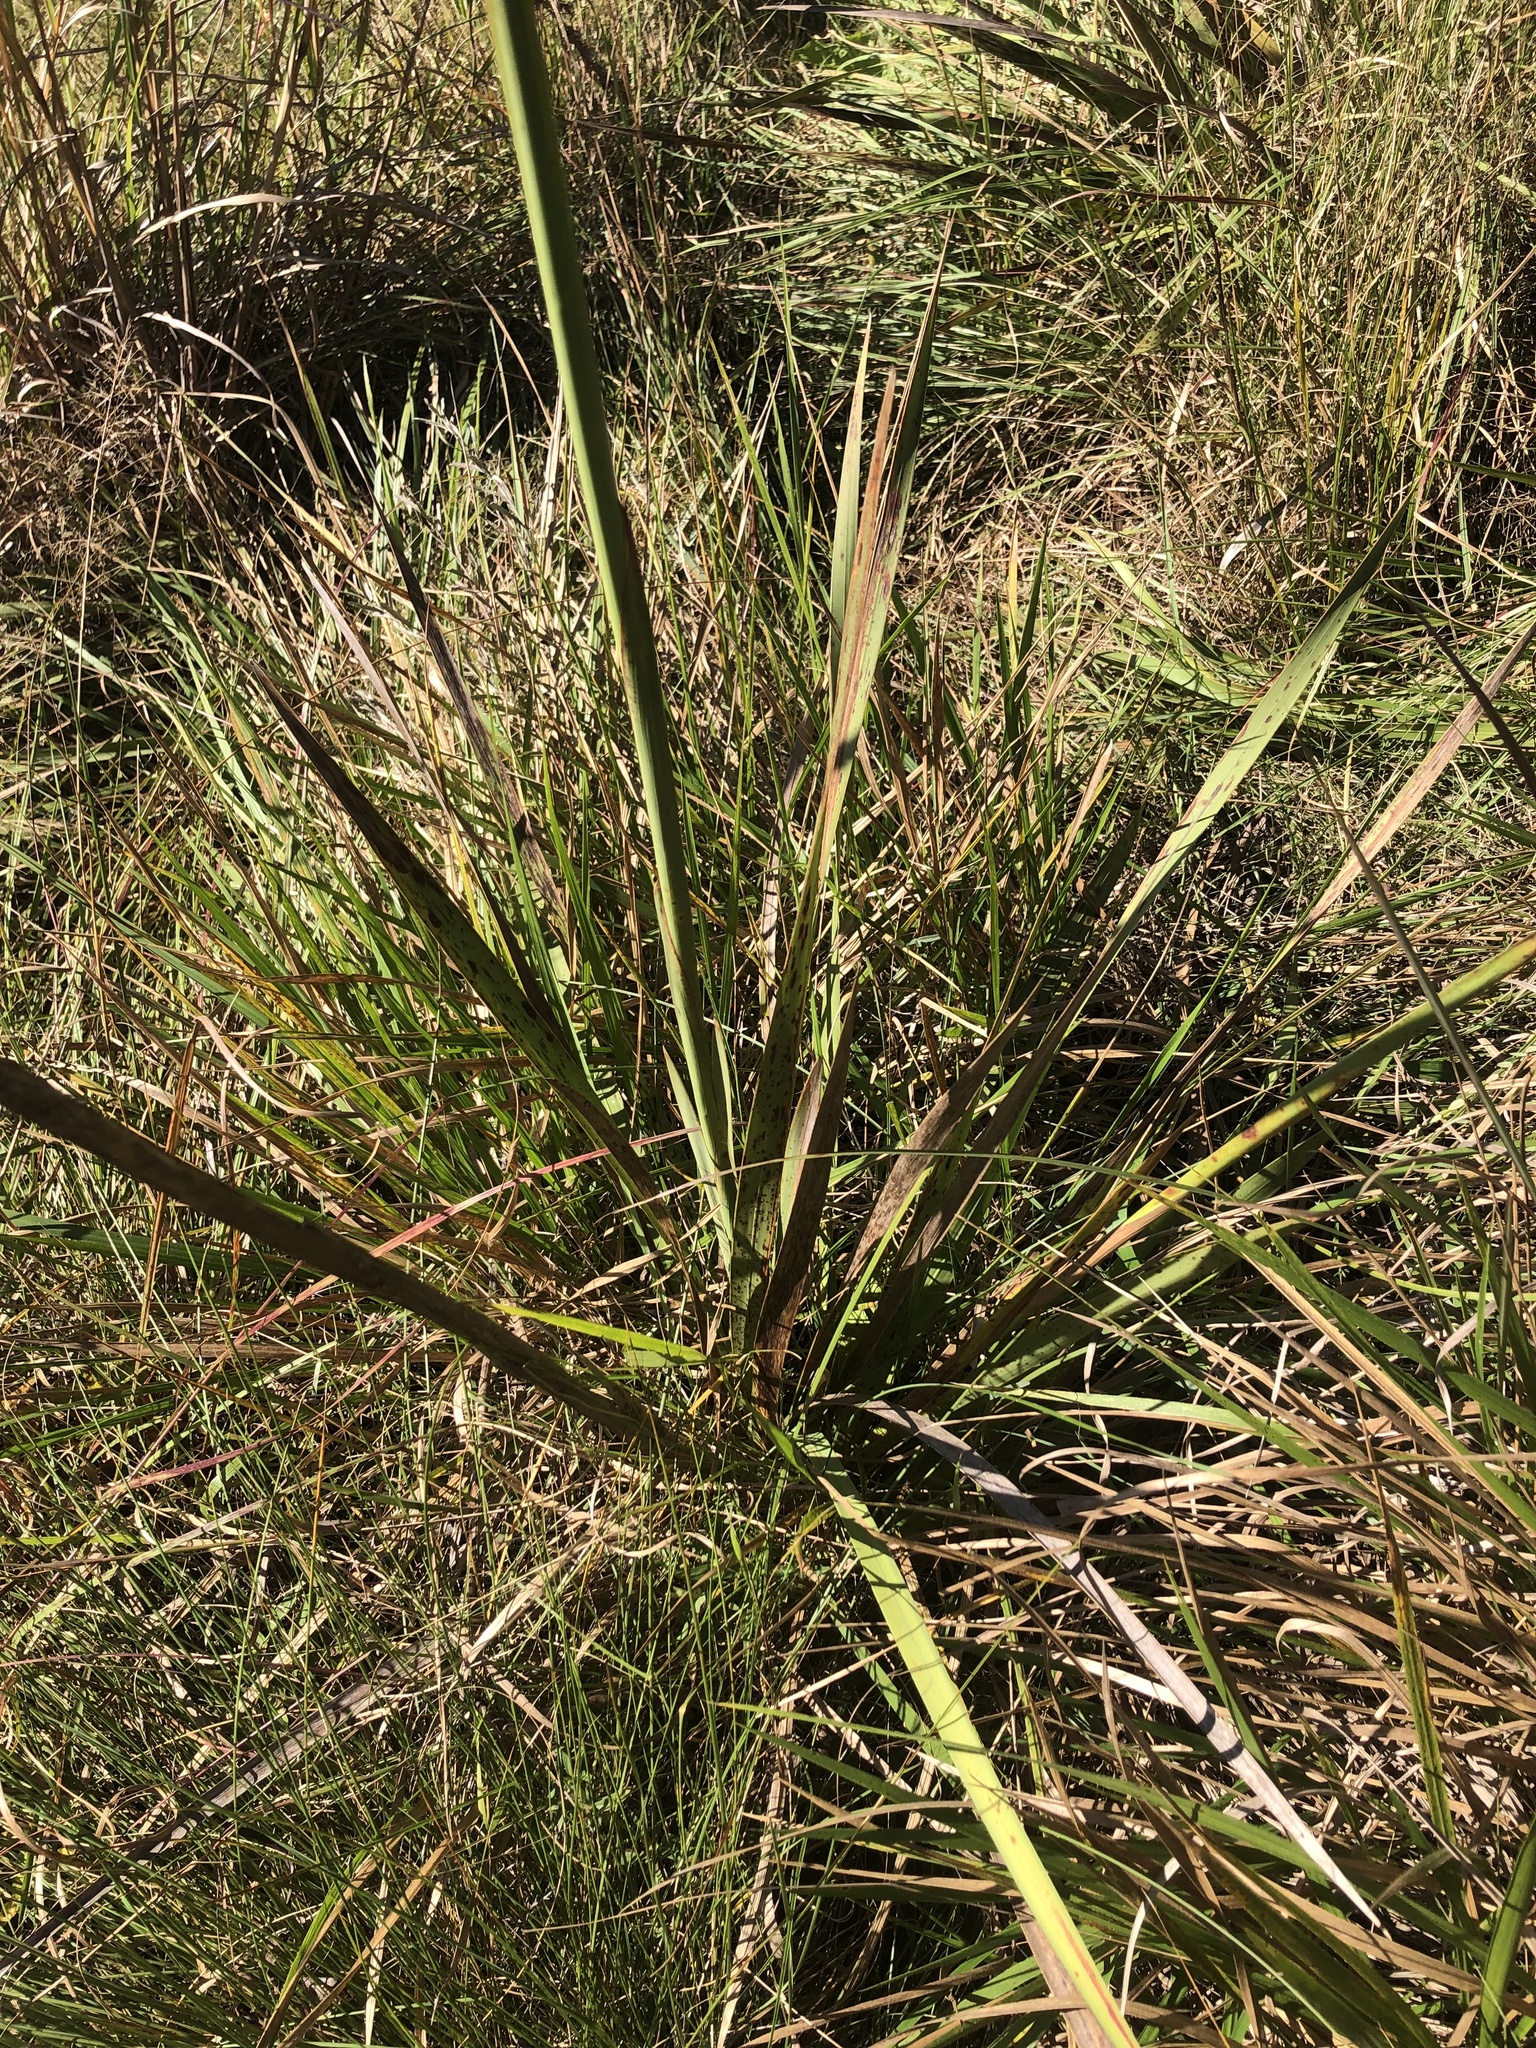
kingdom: Plantae
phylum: Tracheophyta
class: Liliopsida
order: Asparagales
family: Iridaceae
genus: Watsonia
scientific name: Watsonia densiflora
